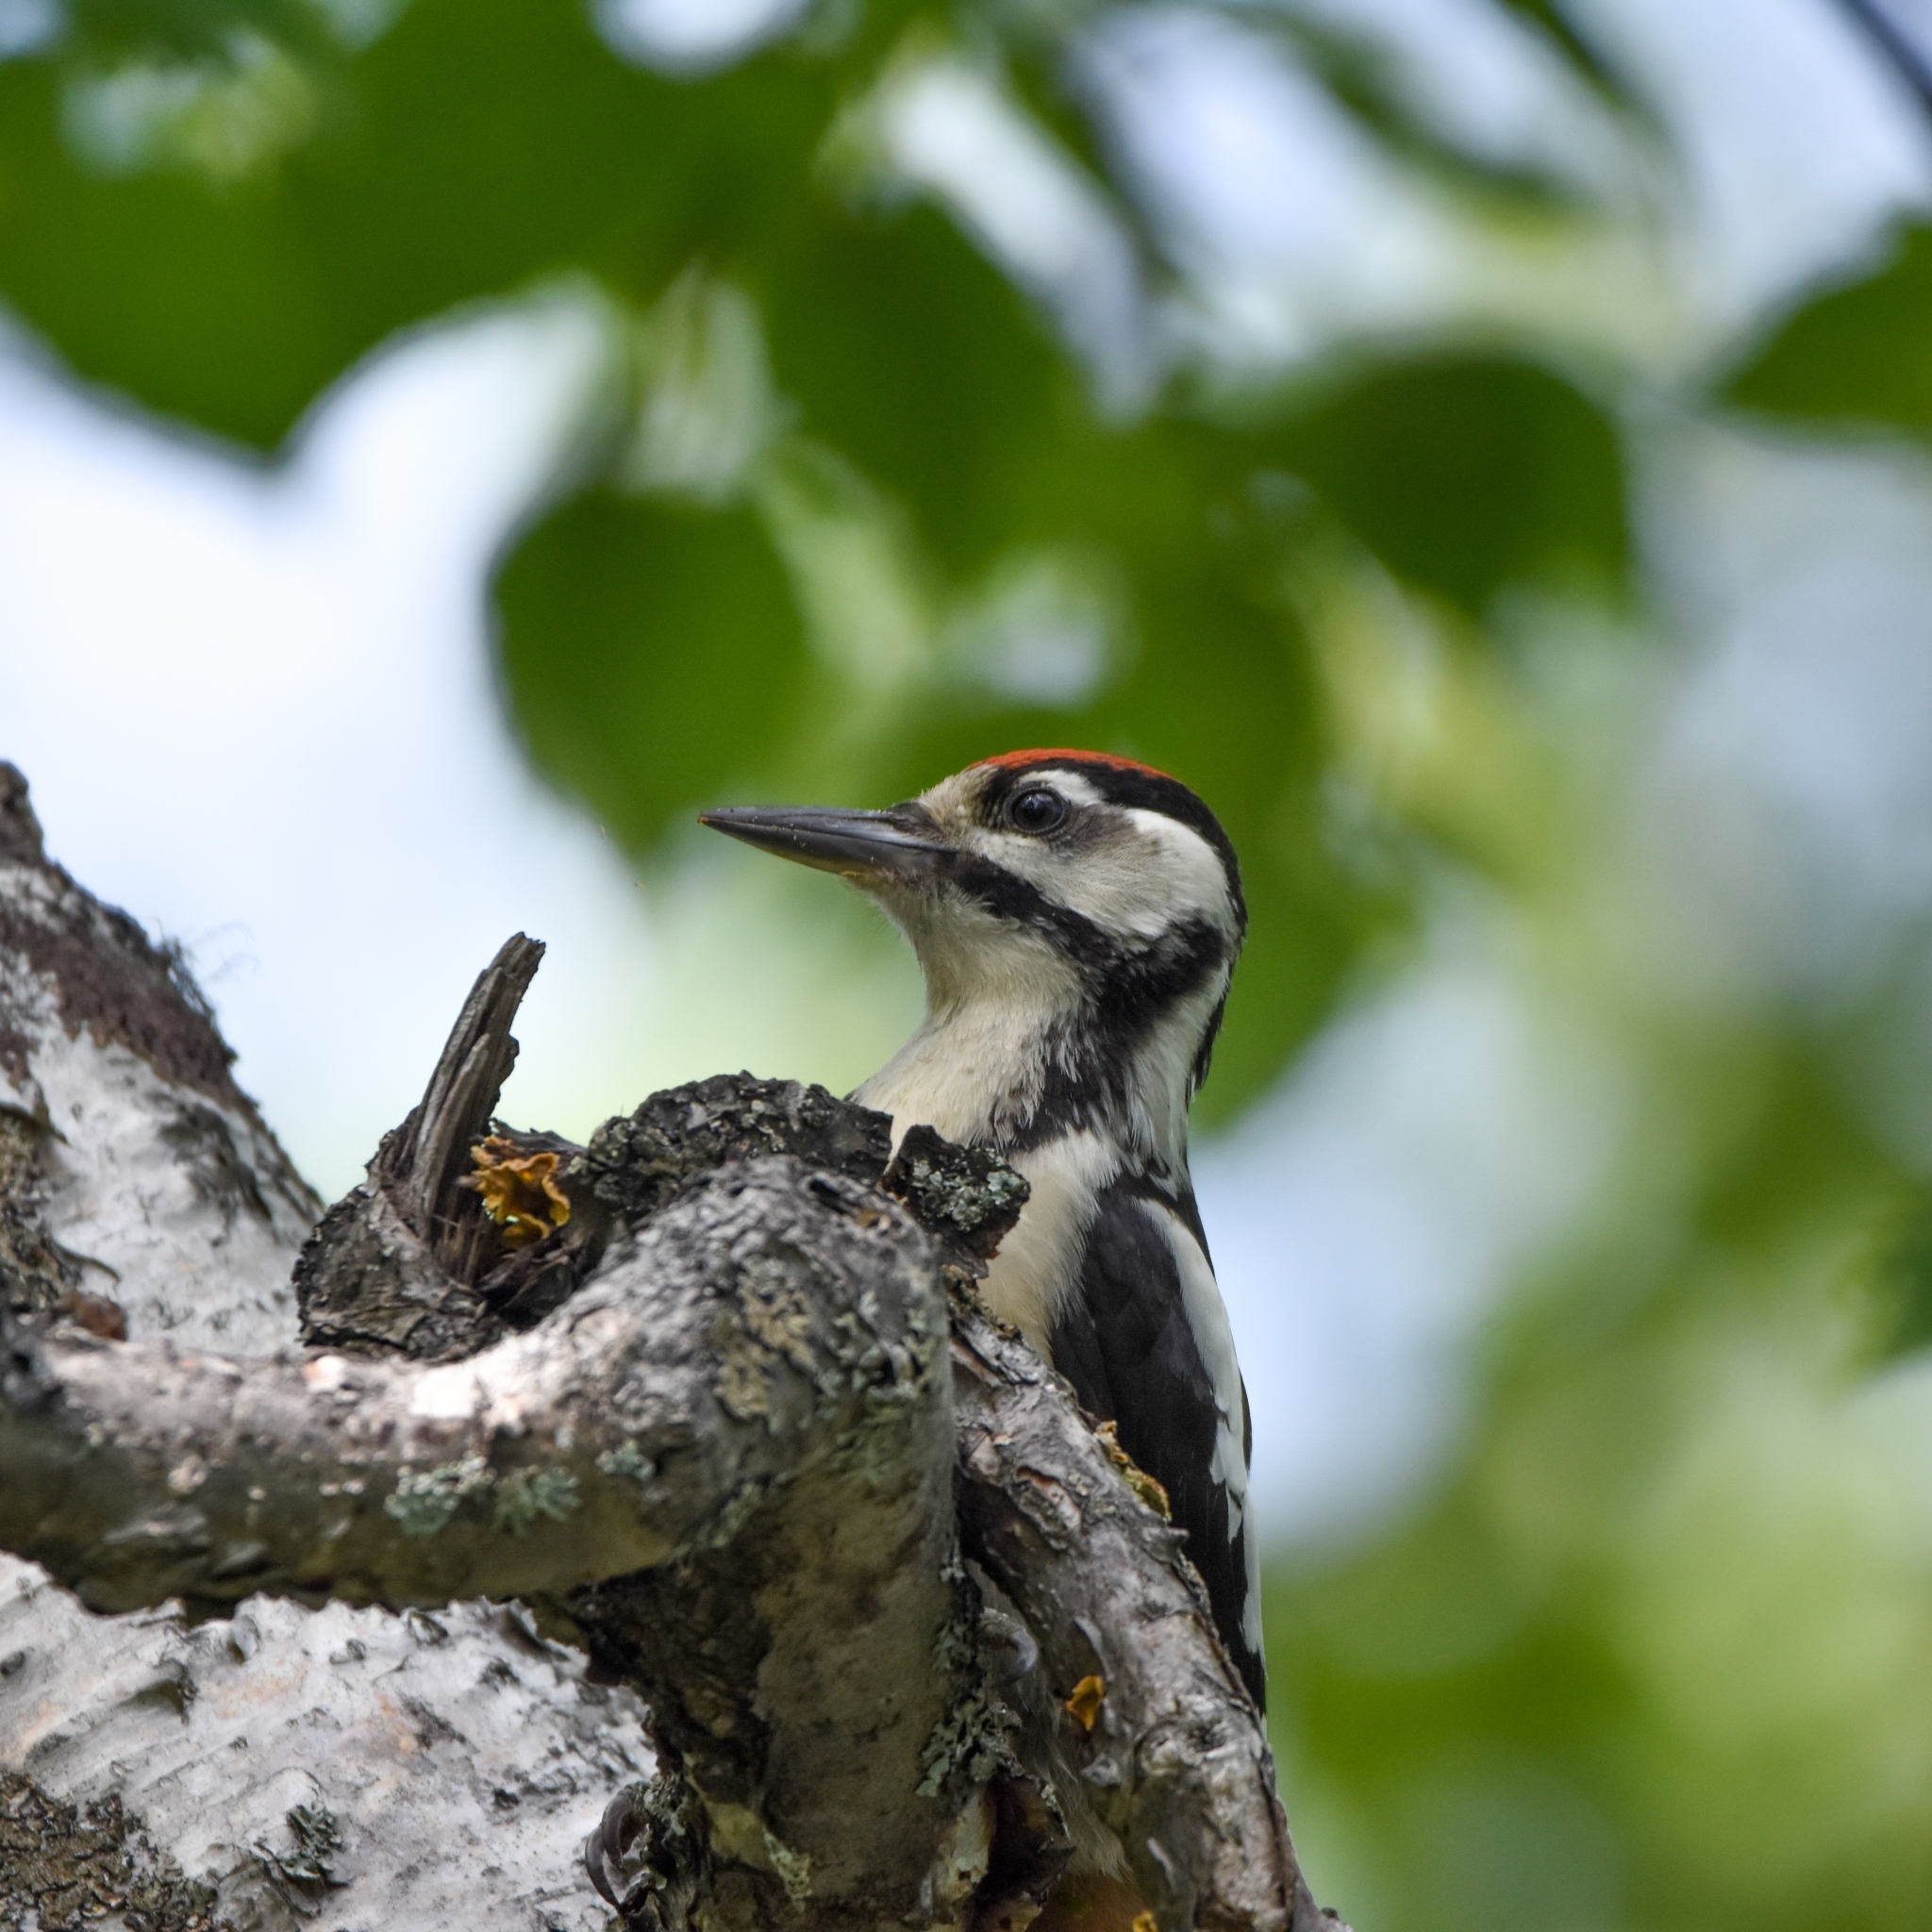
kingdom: Animalia
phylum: Chordata
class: Aves
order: Piciformes
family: Picidae
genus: Dendrocopos
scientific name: Dendrocopos major
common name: Great spotted woodpecker
